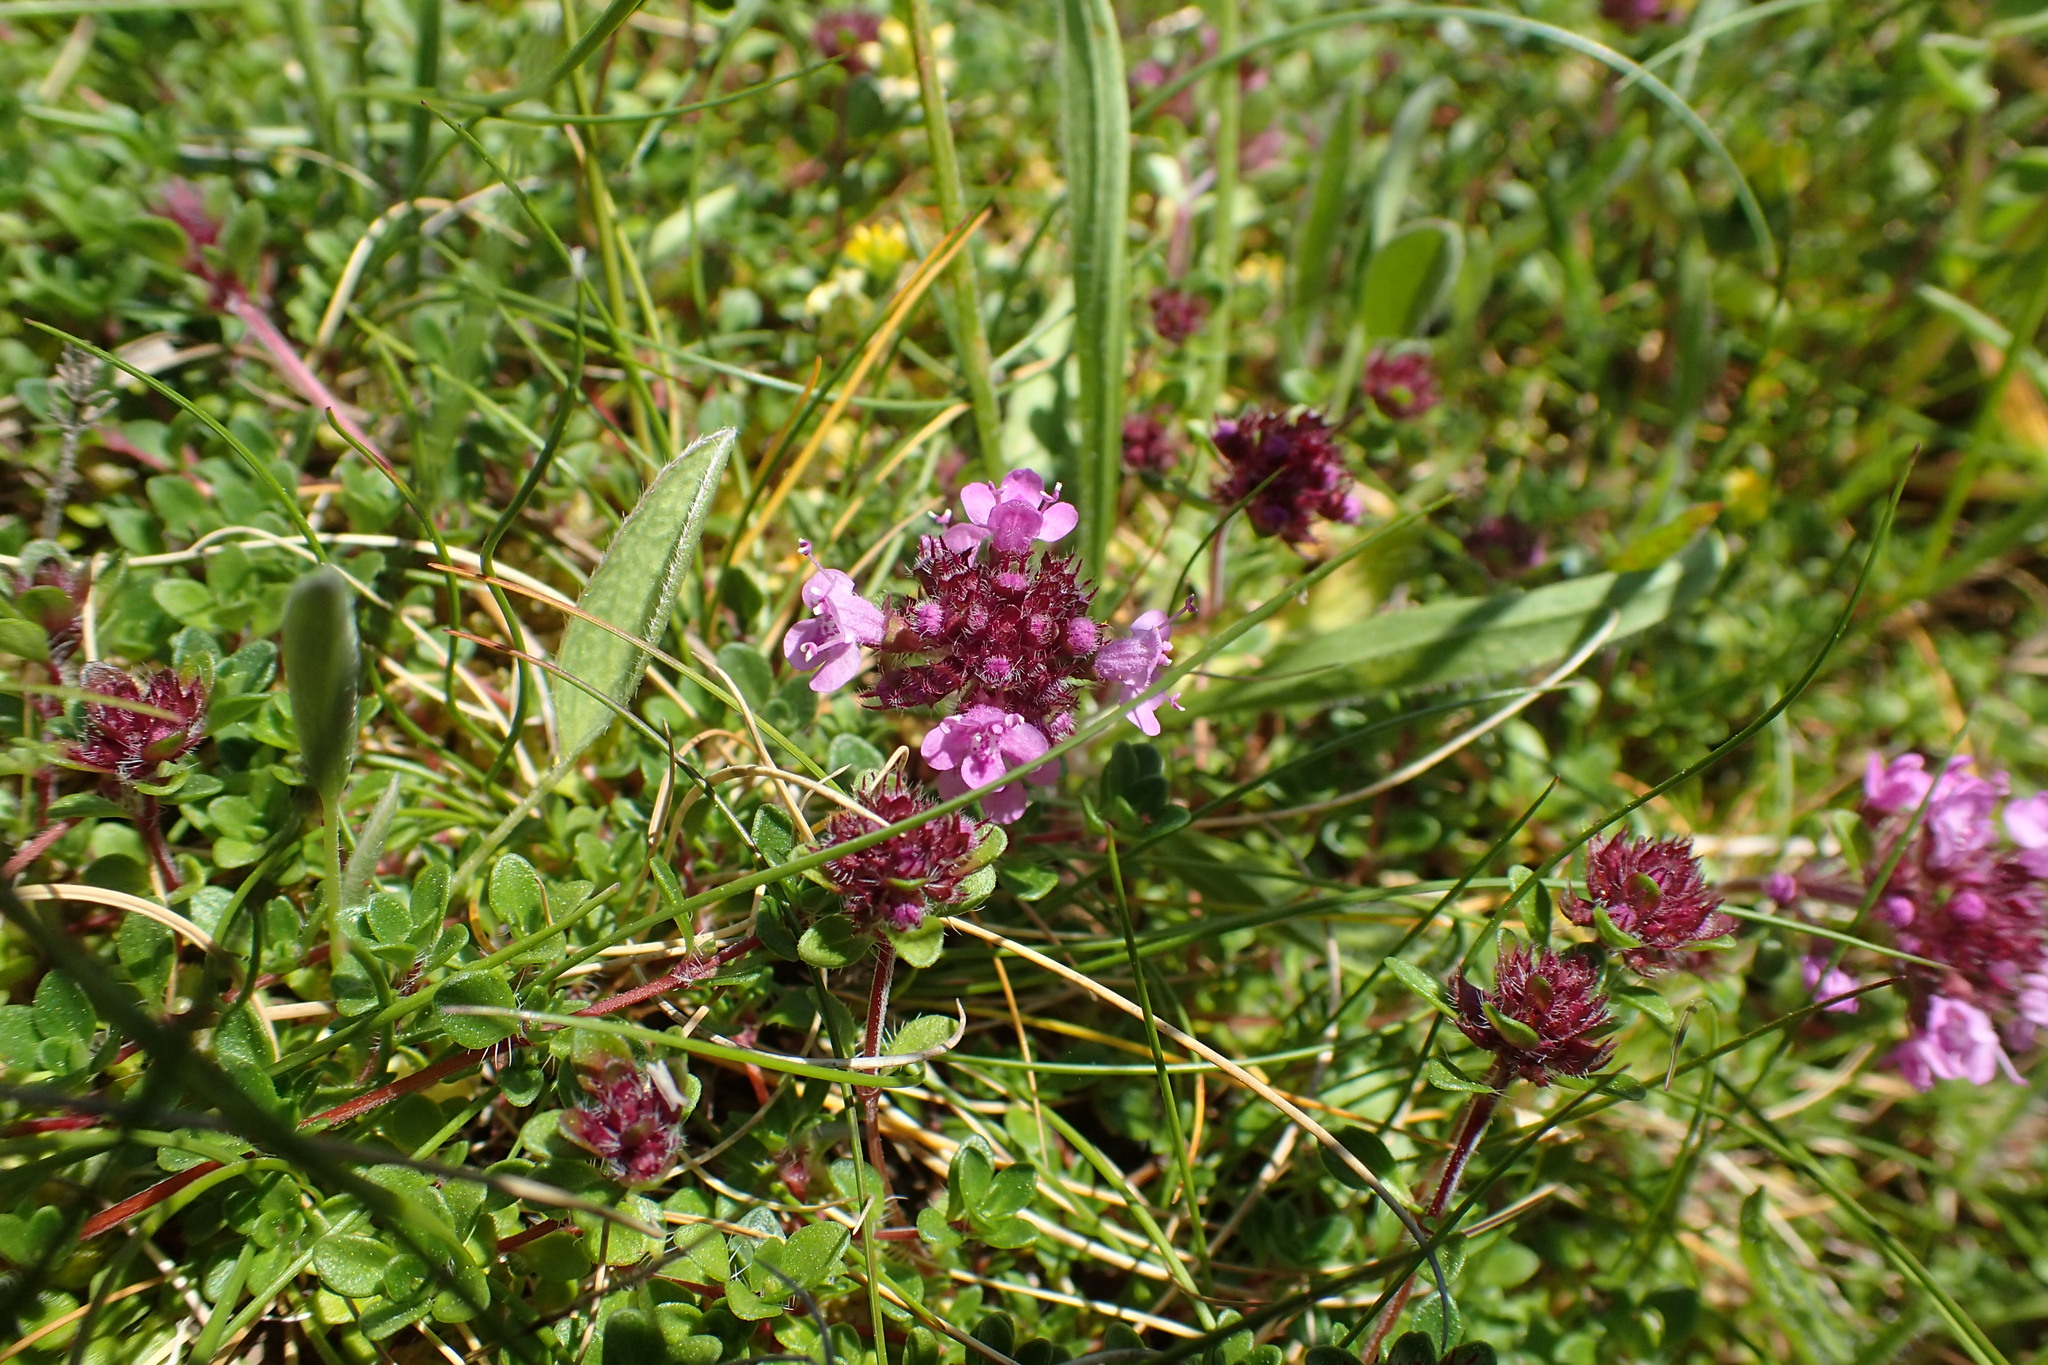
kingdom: Plantae
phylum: Tracheophyta
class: Magnoliopsida
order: Lamiales
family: Lamiaceae
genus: Thymus
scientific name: Thymus praecox
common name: Wild thyme
